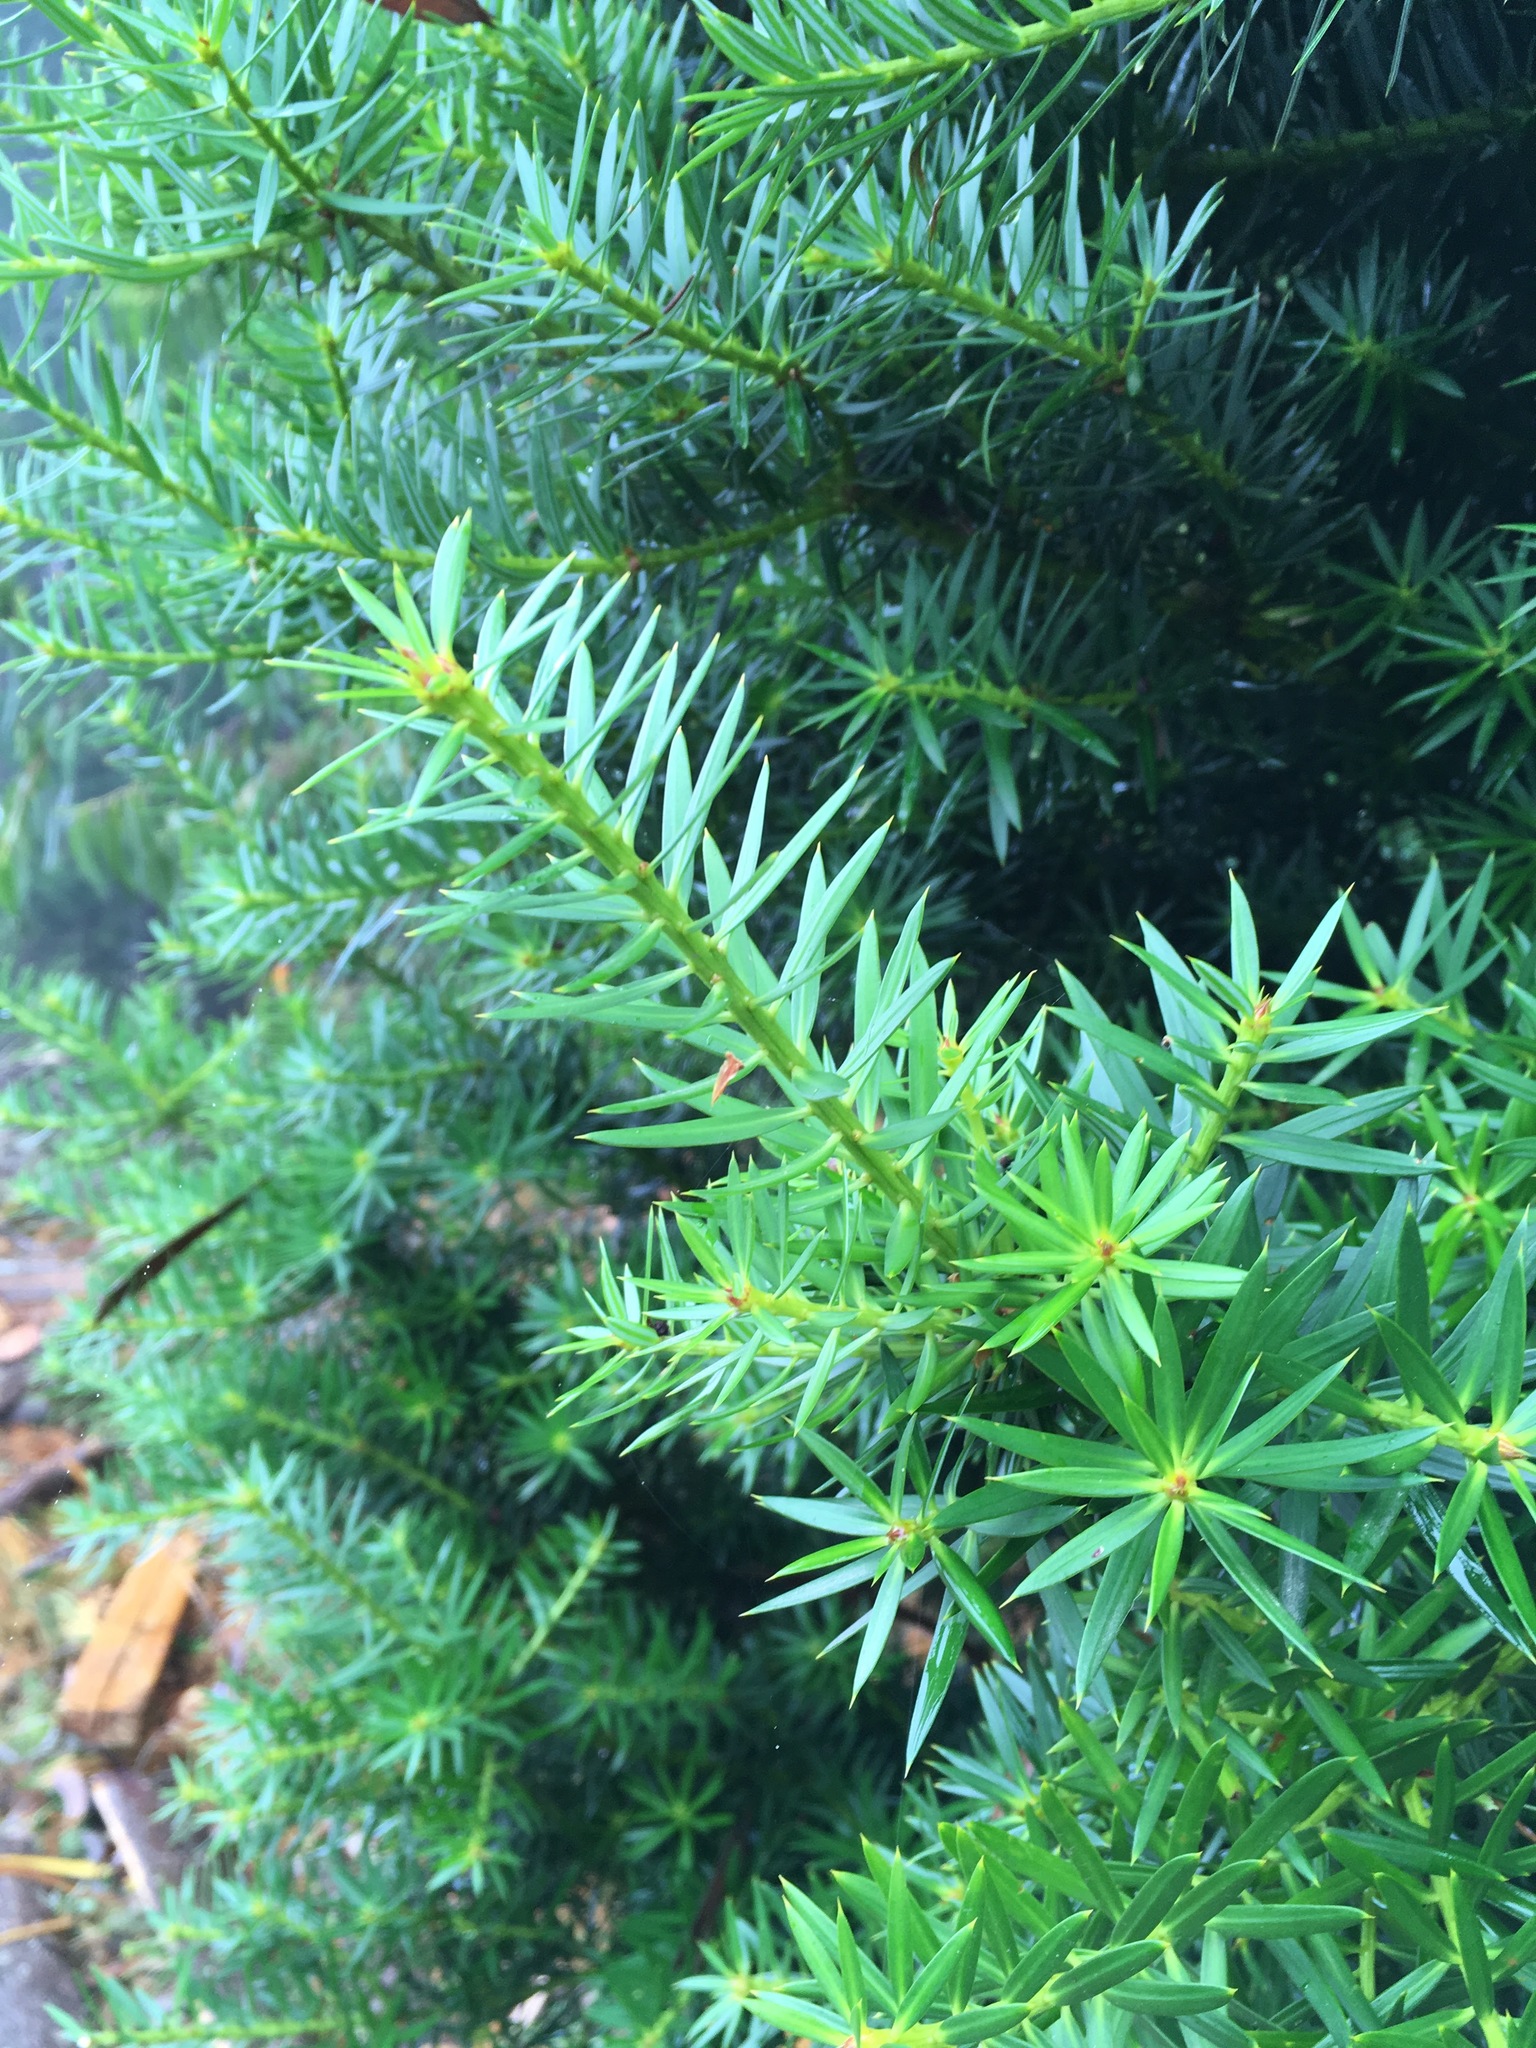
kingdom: Plantae
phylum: Tracheophyta
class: Pinopsida
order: Pinales
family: Podocarpaceae
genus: Podocarpus
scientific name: Podocarpus nubigenus
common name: Cloud podocarp
